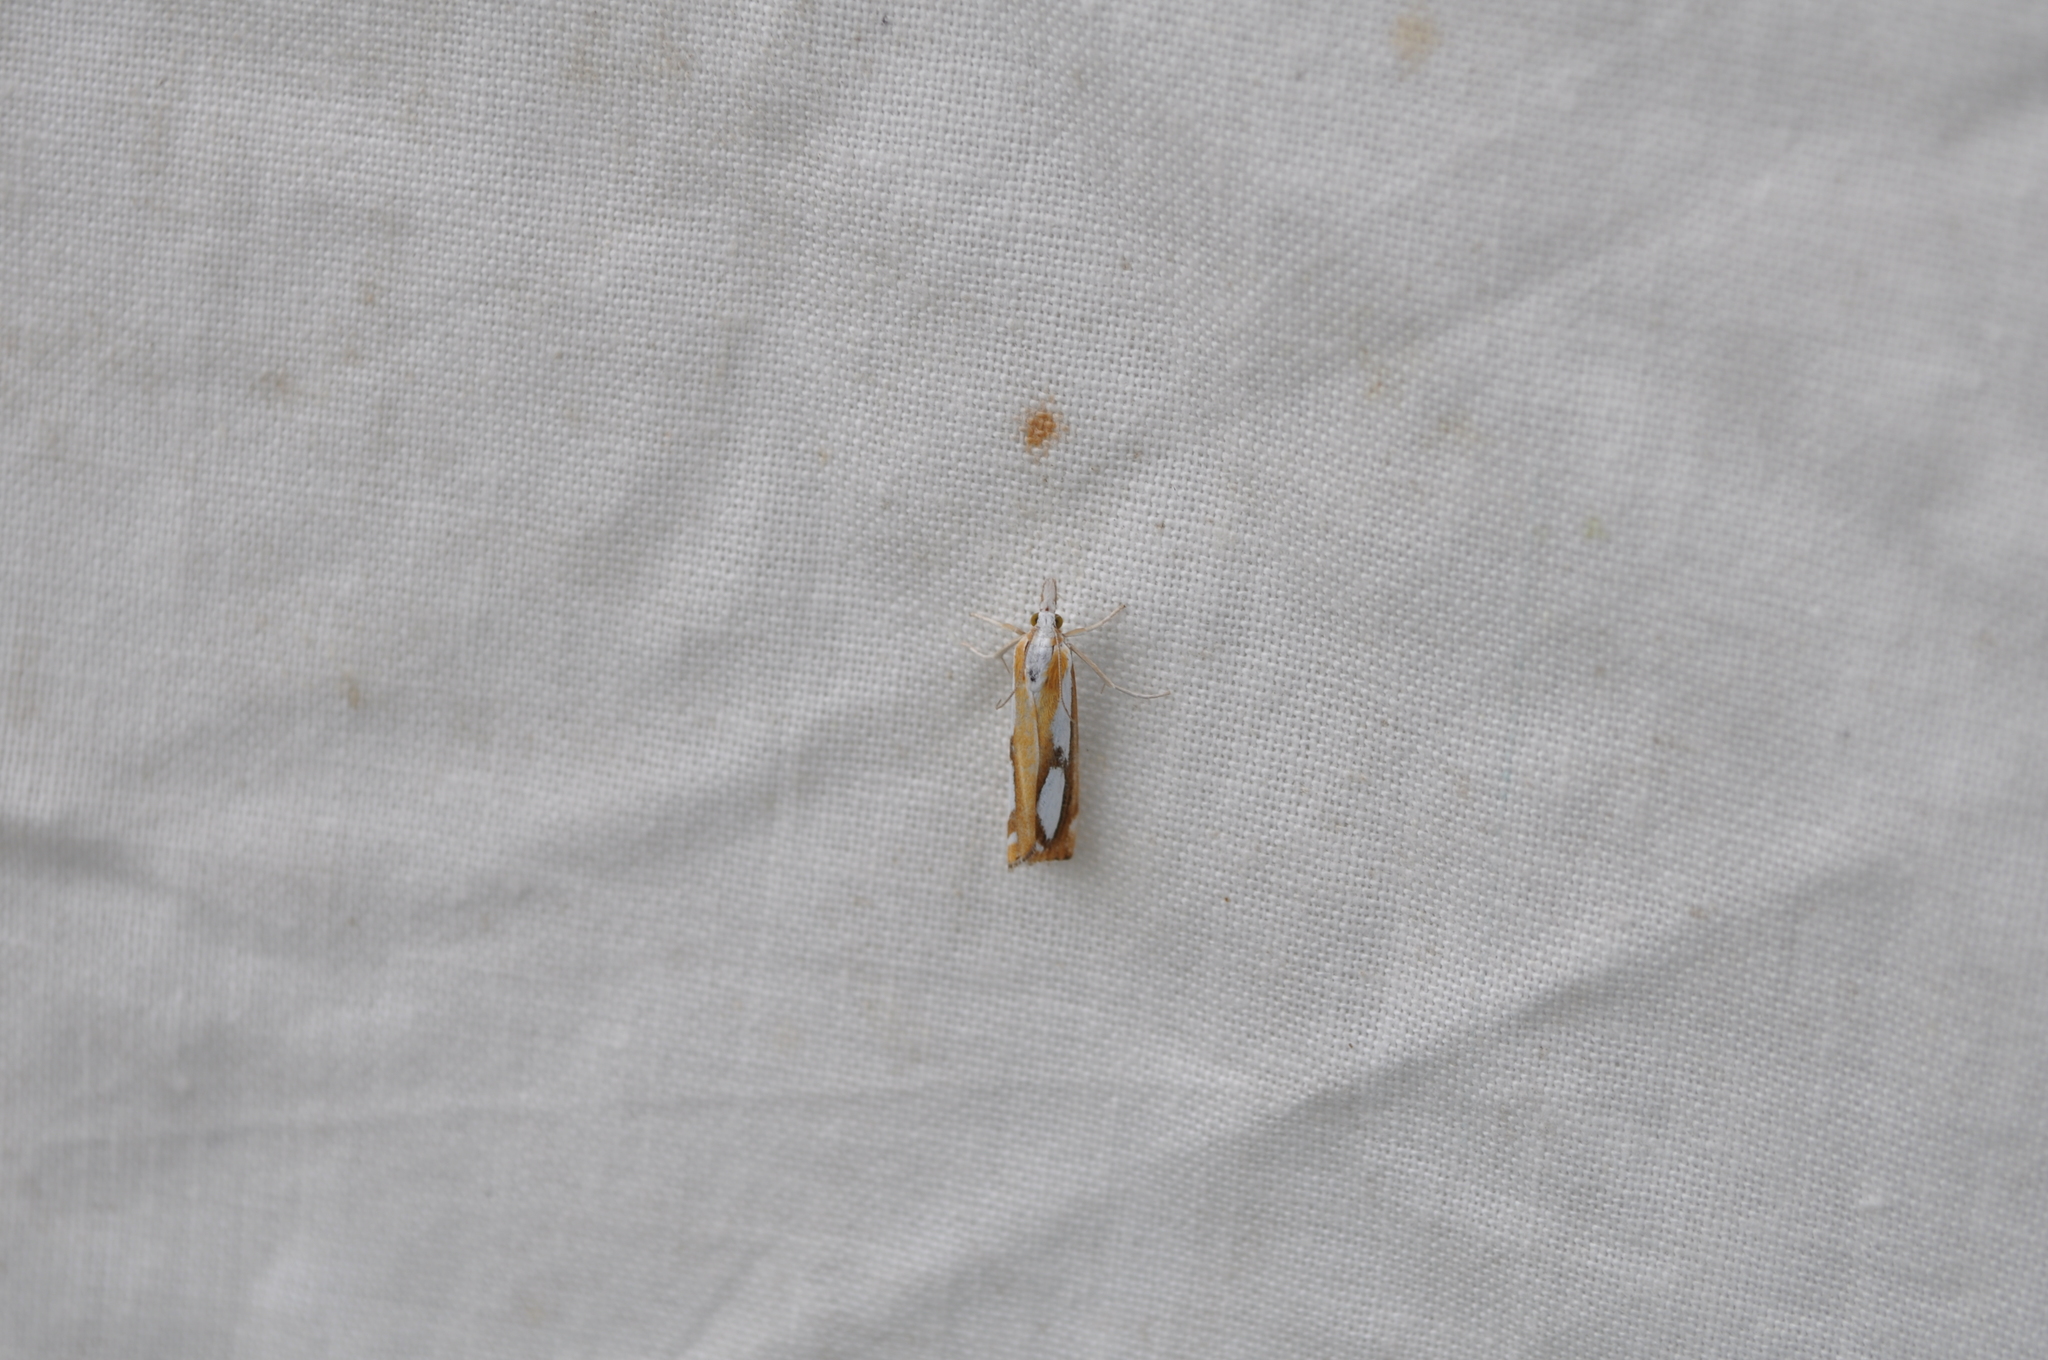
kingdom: Animalia
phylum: Arthropoda
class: Insecta
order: Lepidoptera
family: Crambidae
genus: Catoptria
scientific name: Catoptria permutatellus
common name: Scotch grass-veneer
